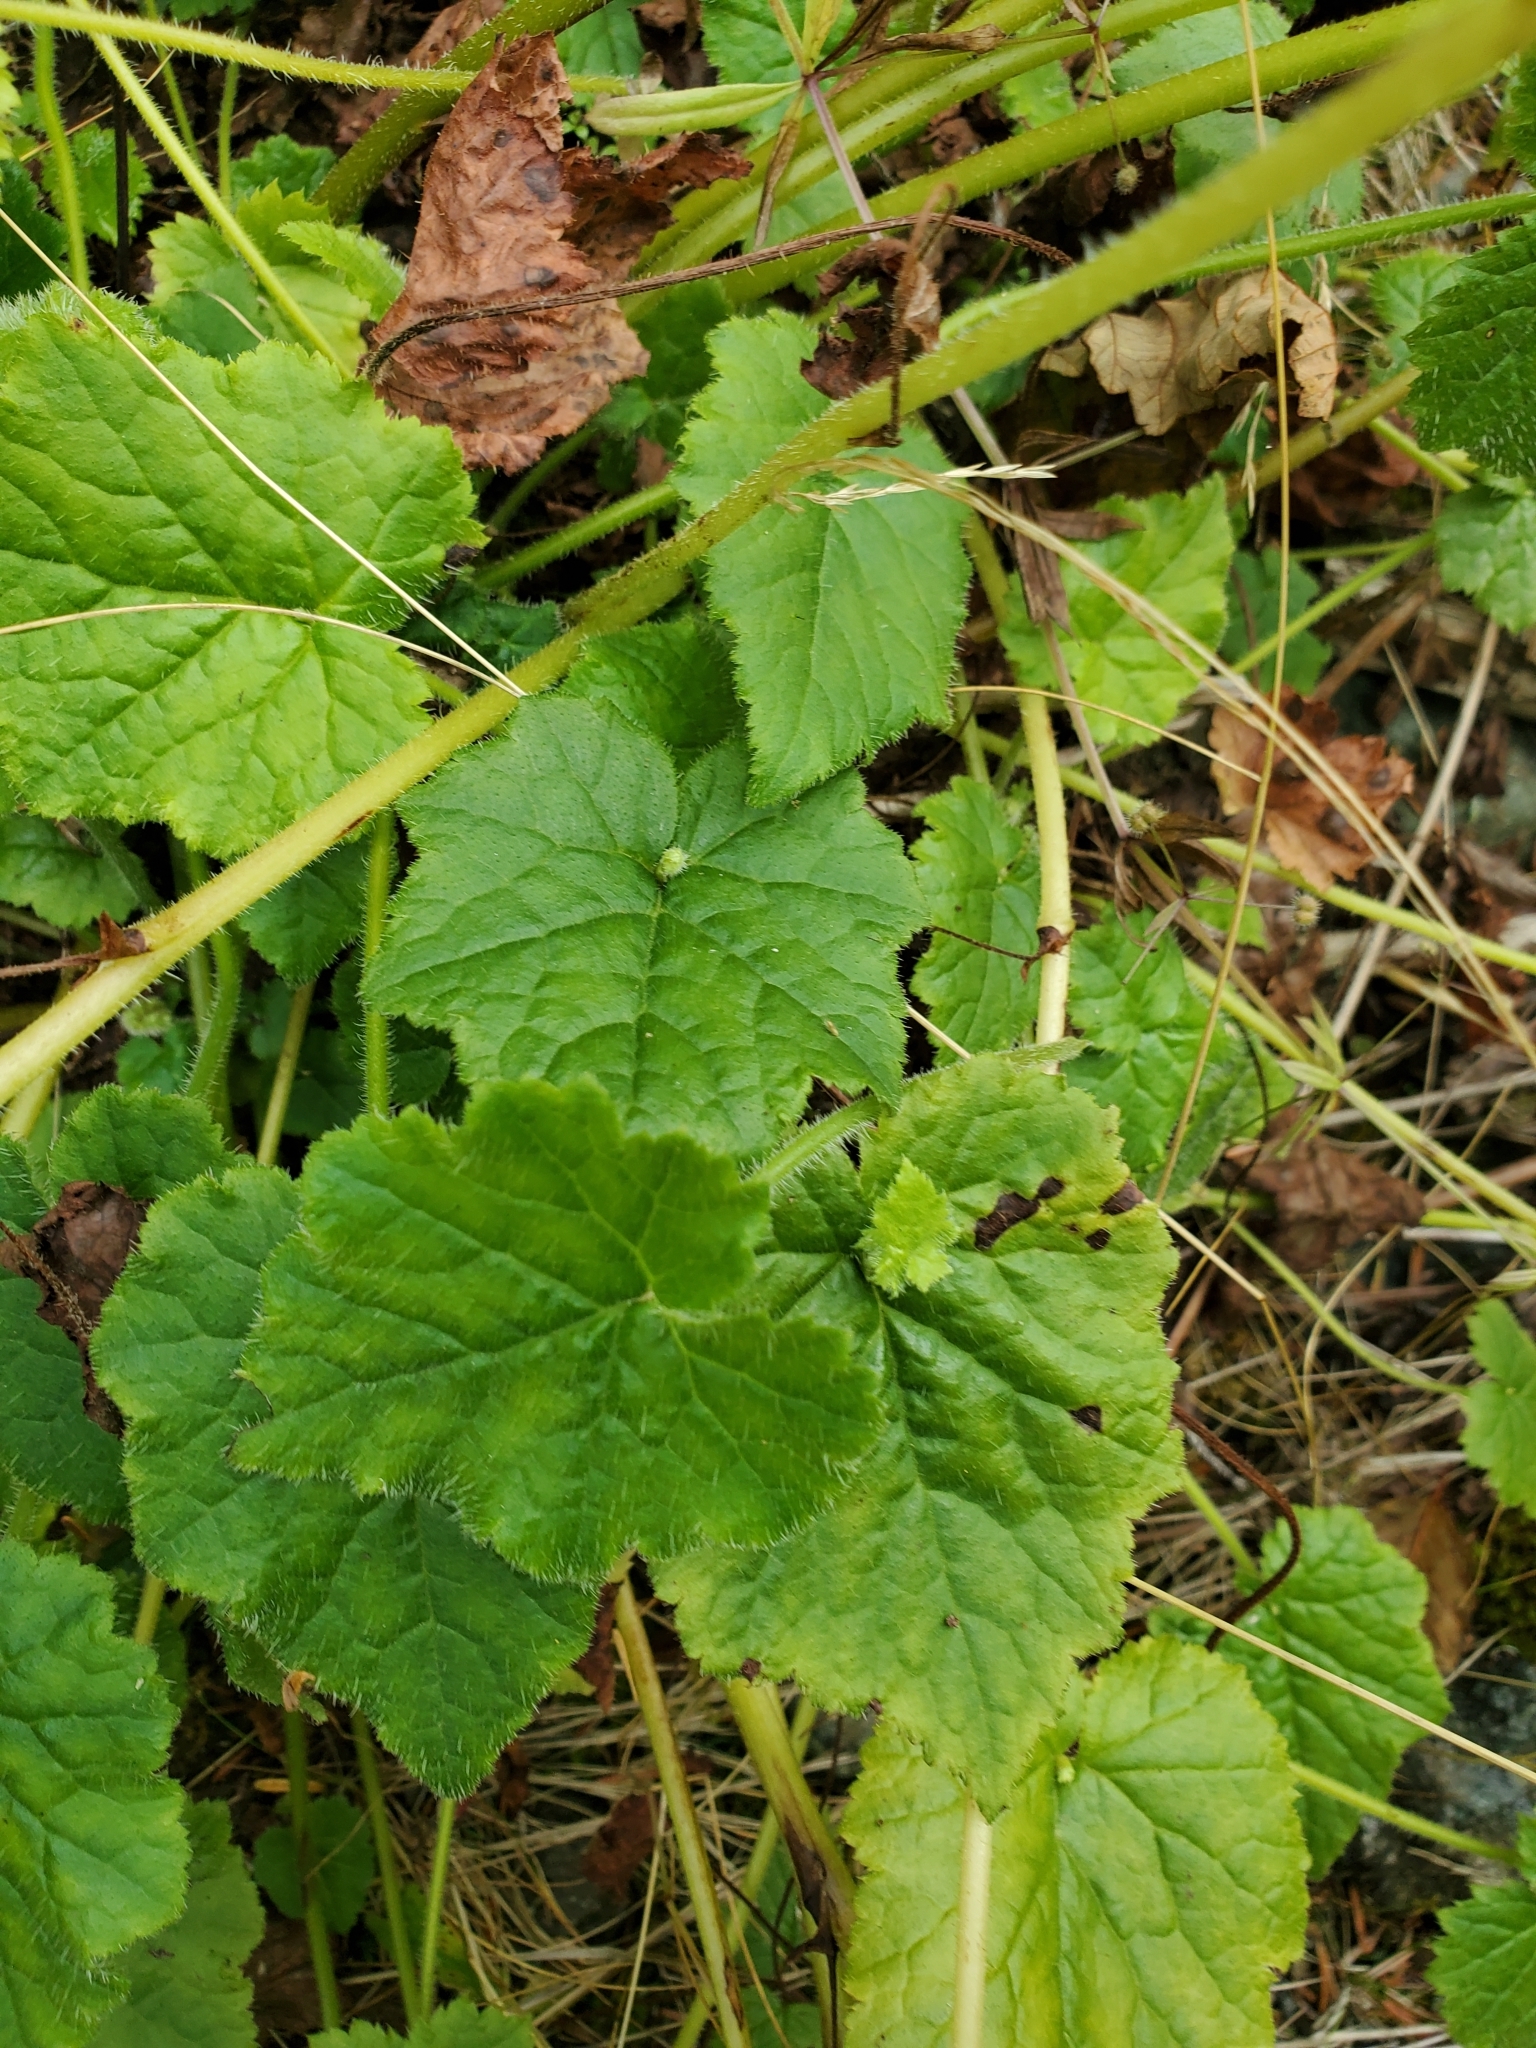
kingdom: Plantae
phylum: Tracheophyta
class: Magnoliopsida
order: Saxifragales
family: Saxifragaceae
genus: Tolmiea
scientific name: Tolmiea menziesii
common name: Pick-a-back-plant
